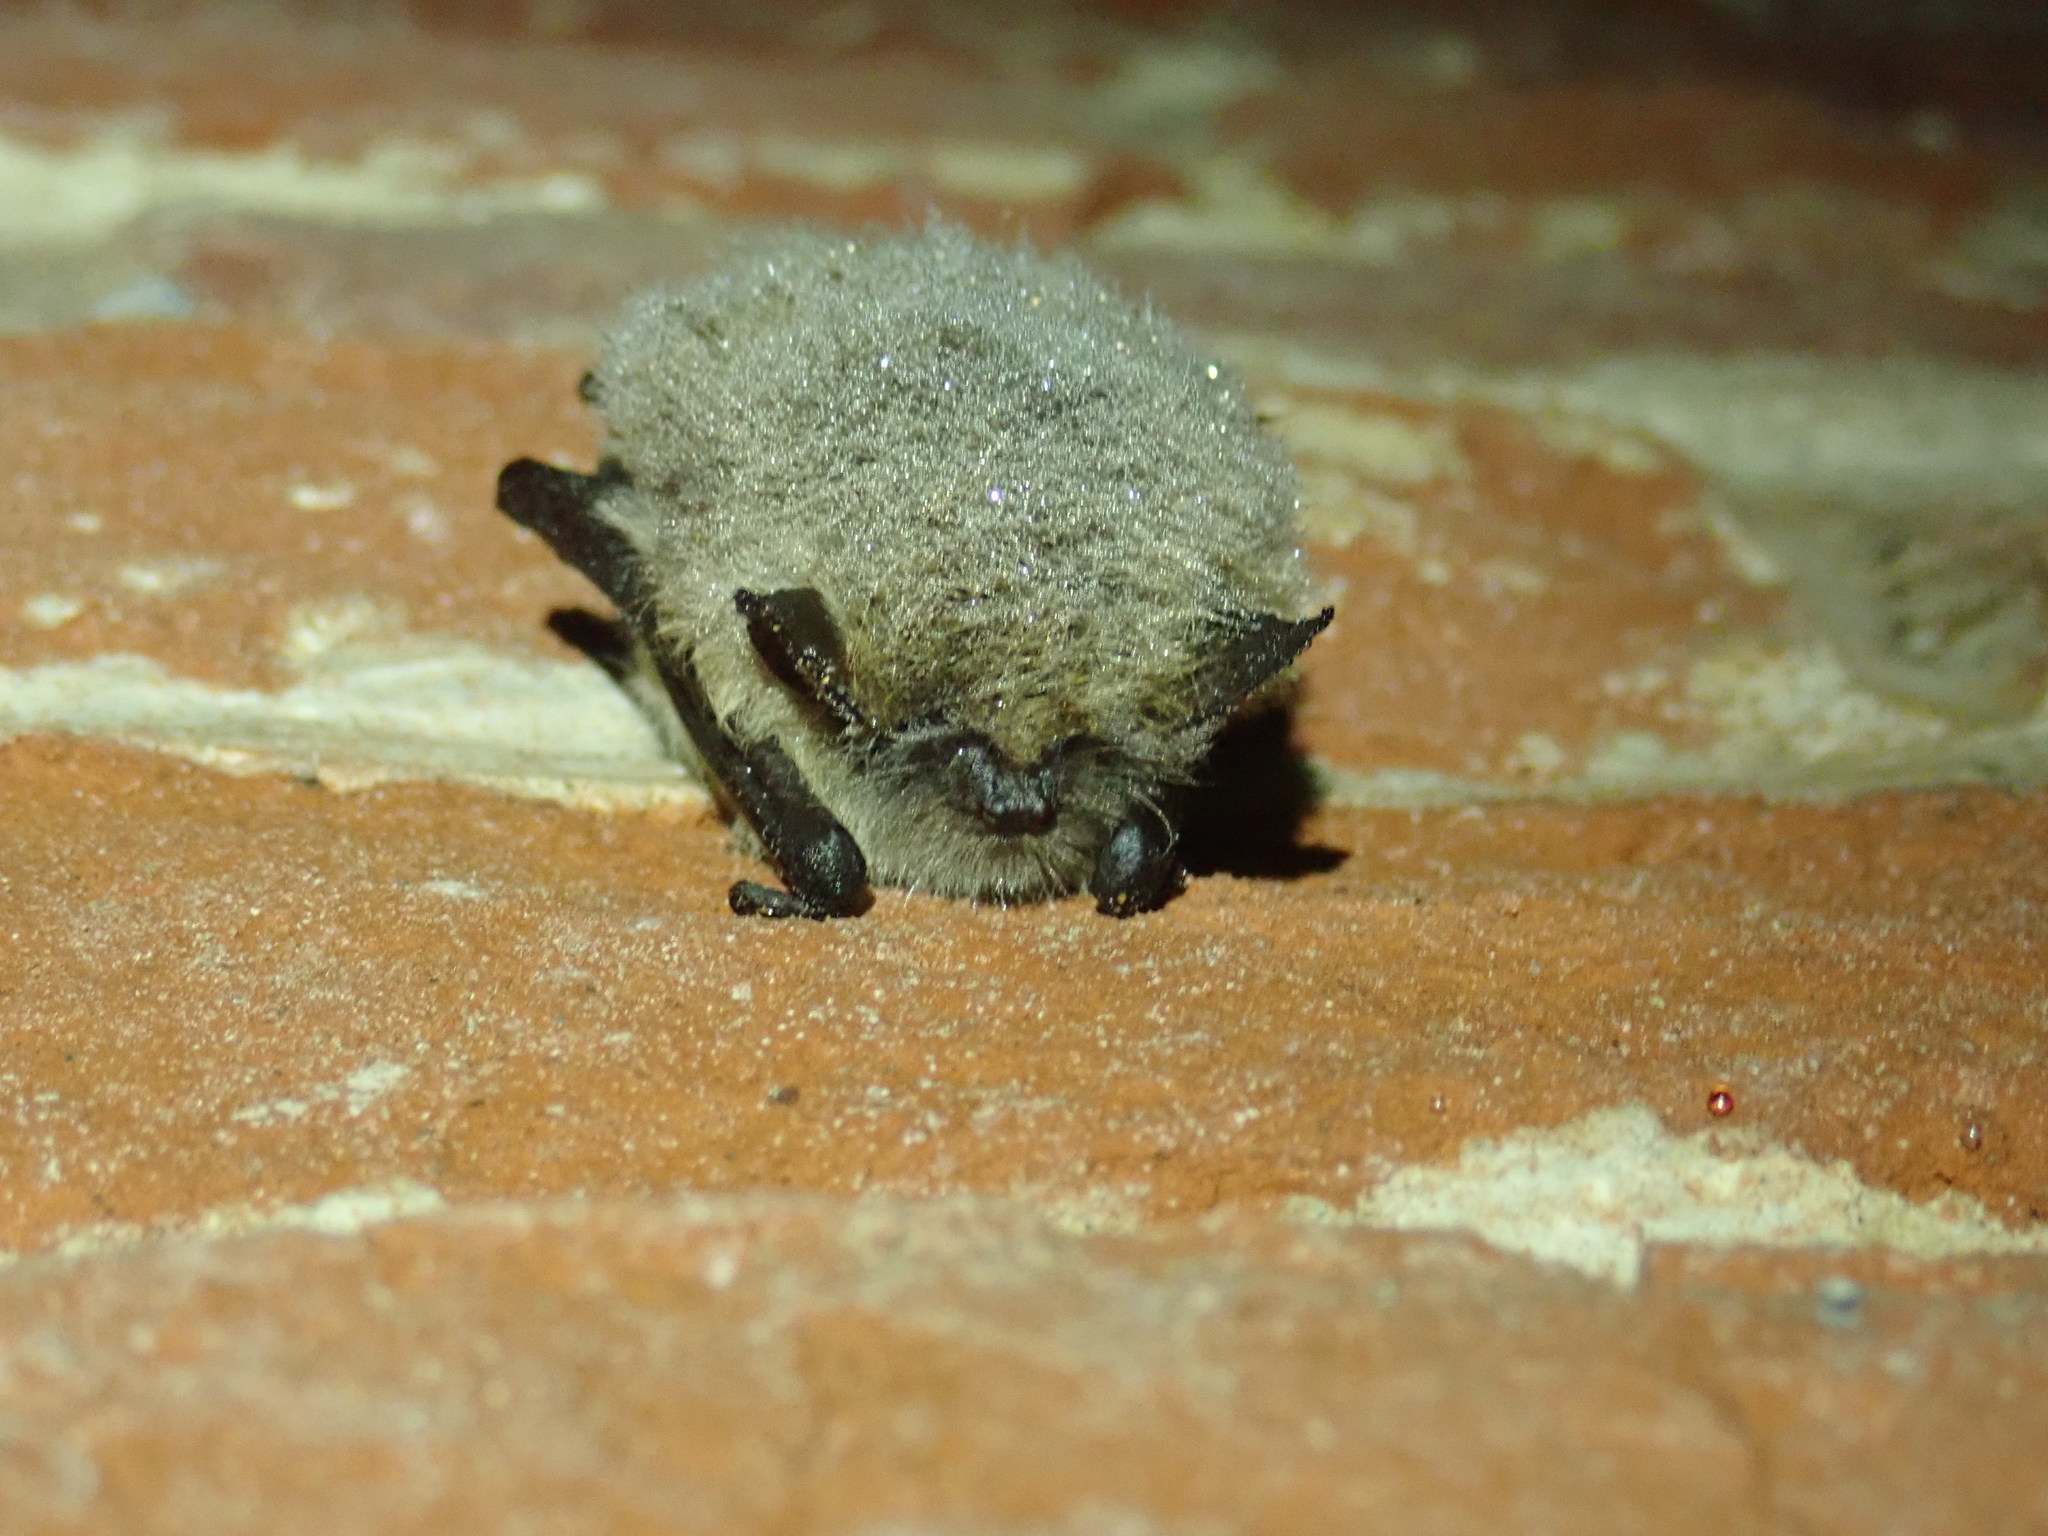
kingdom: Animalia
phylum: Chordata
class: Mammalia
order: Chiroptera
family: Vespertilionidae
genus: Myotis
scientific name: Myotis
